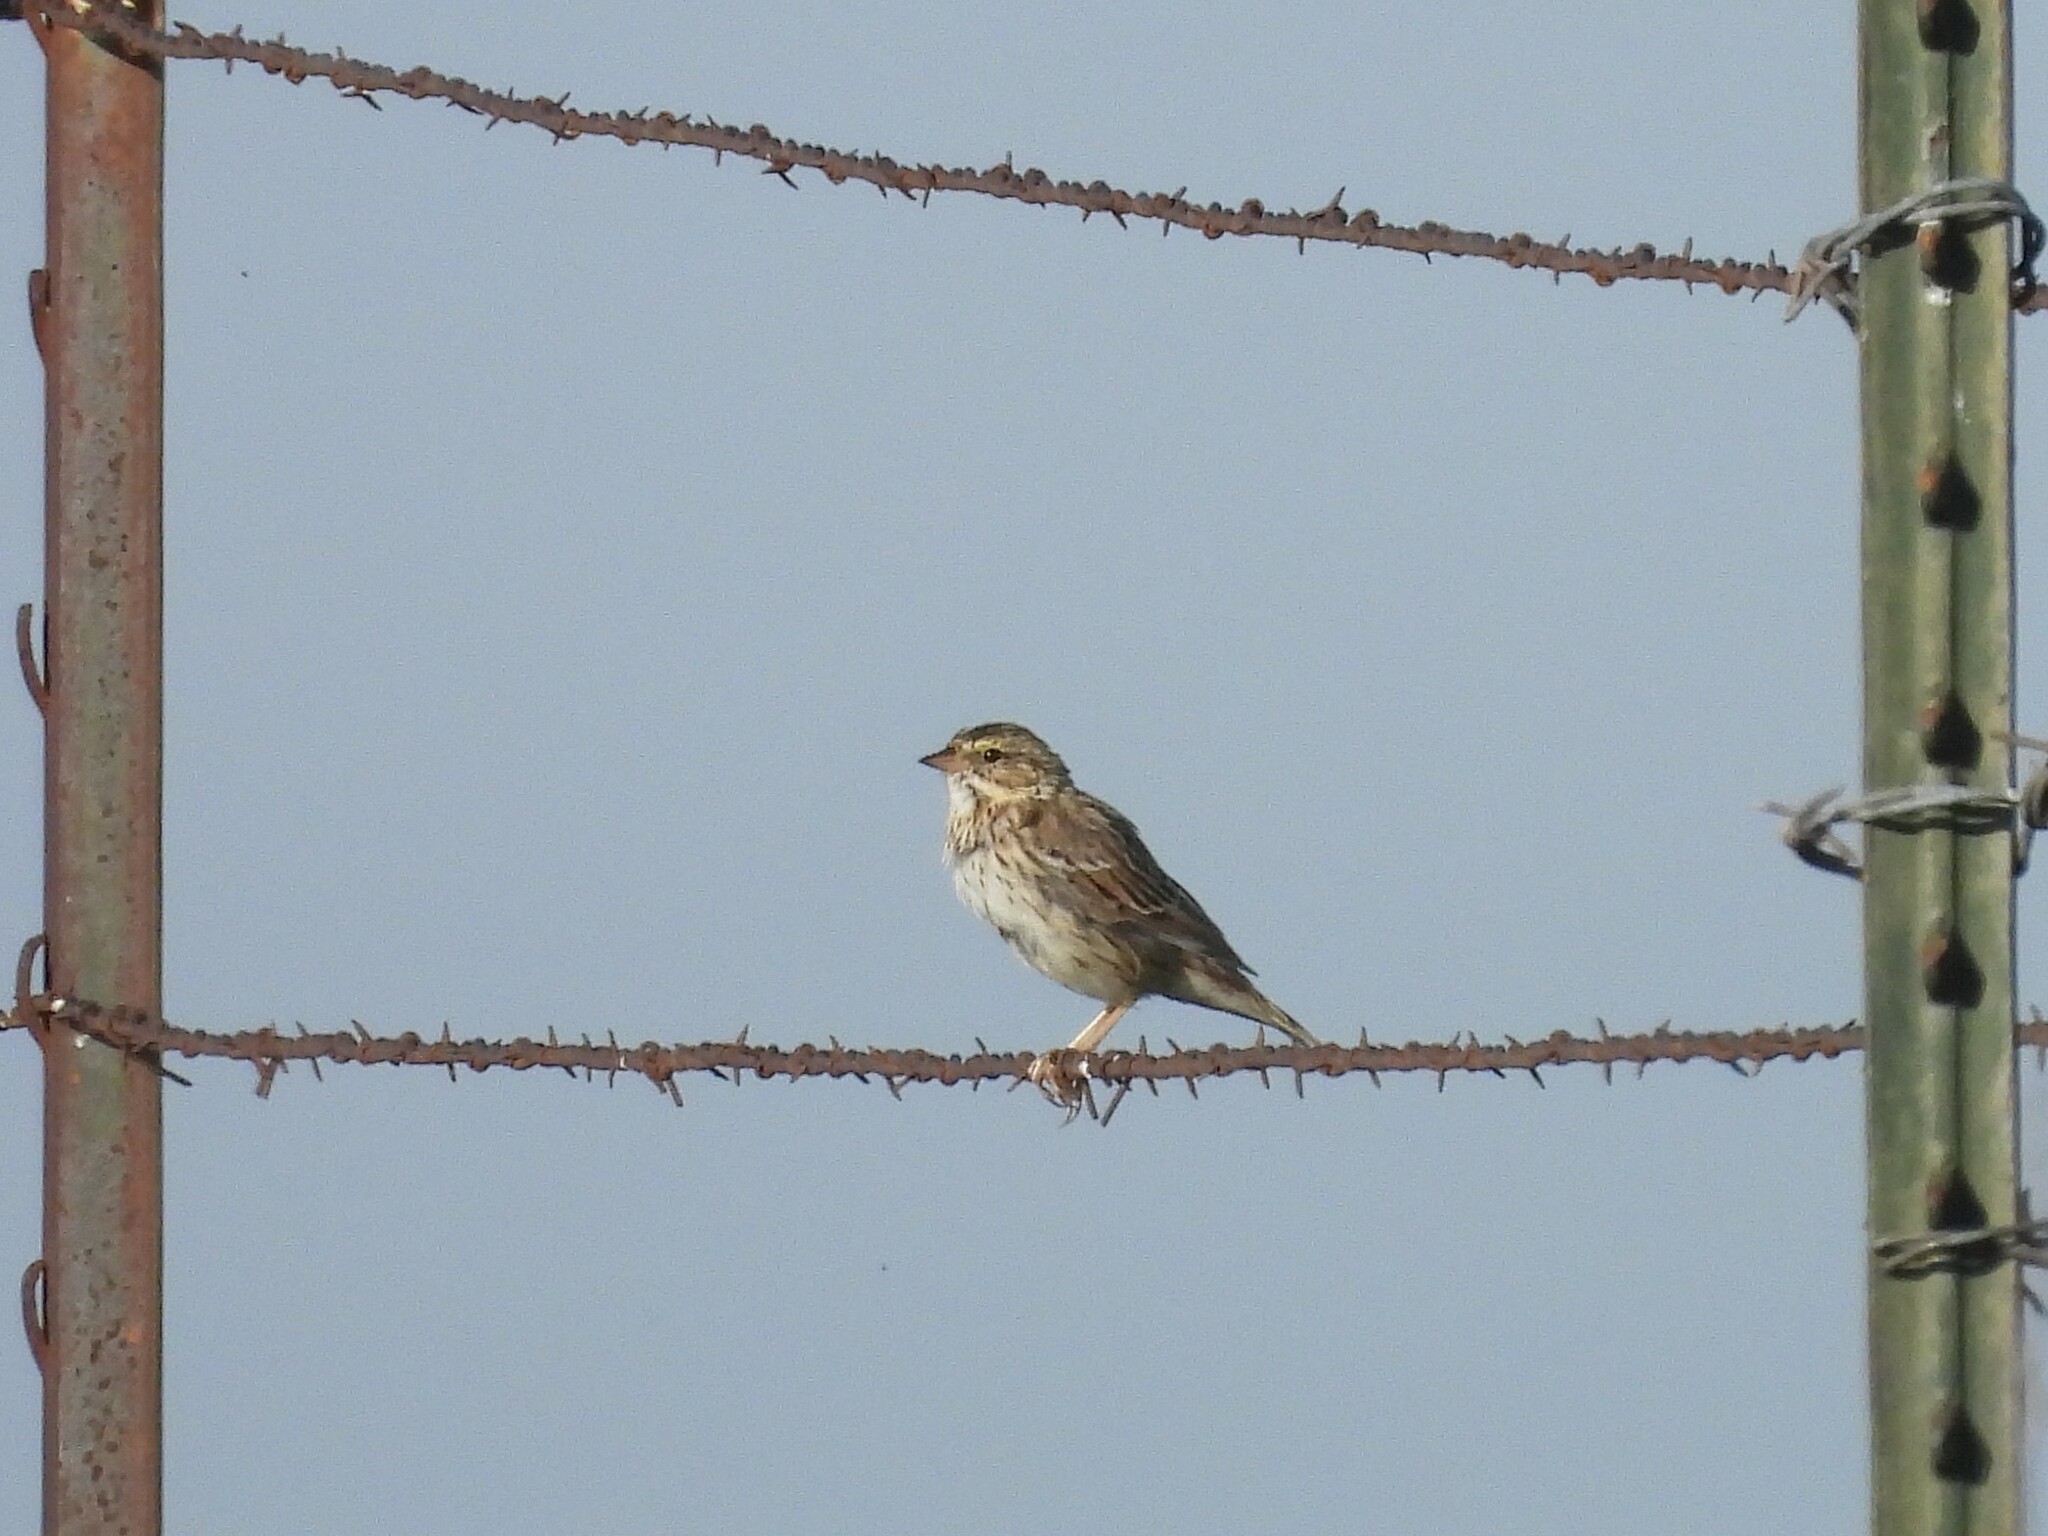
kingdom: Animalia
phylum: Chordata
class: Aves
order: Passeriformes
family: Passerellidae
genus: Passerculus
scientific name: Passerculus sandwichensis
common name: Savannah sparrow
